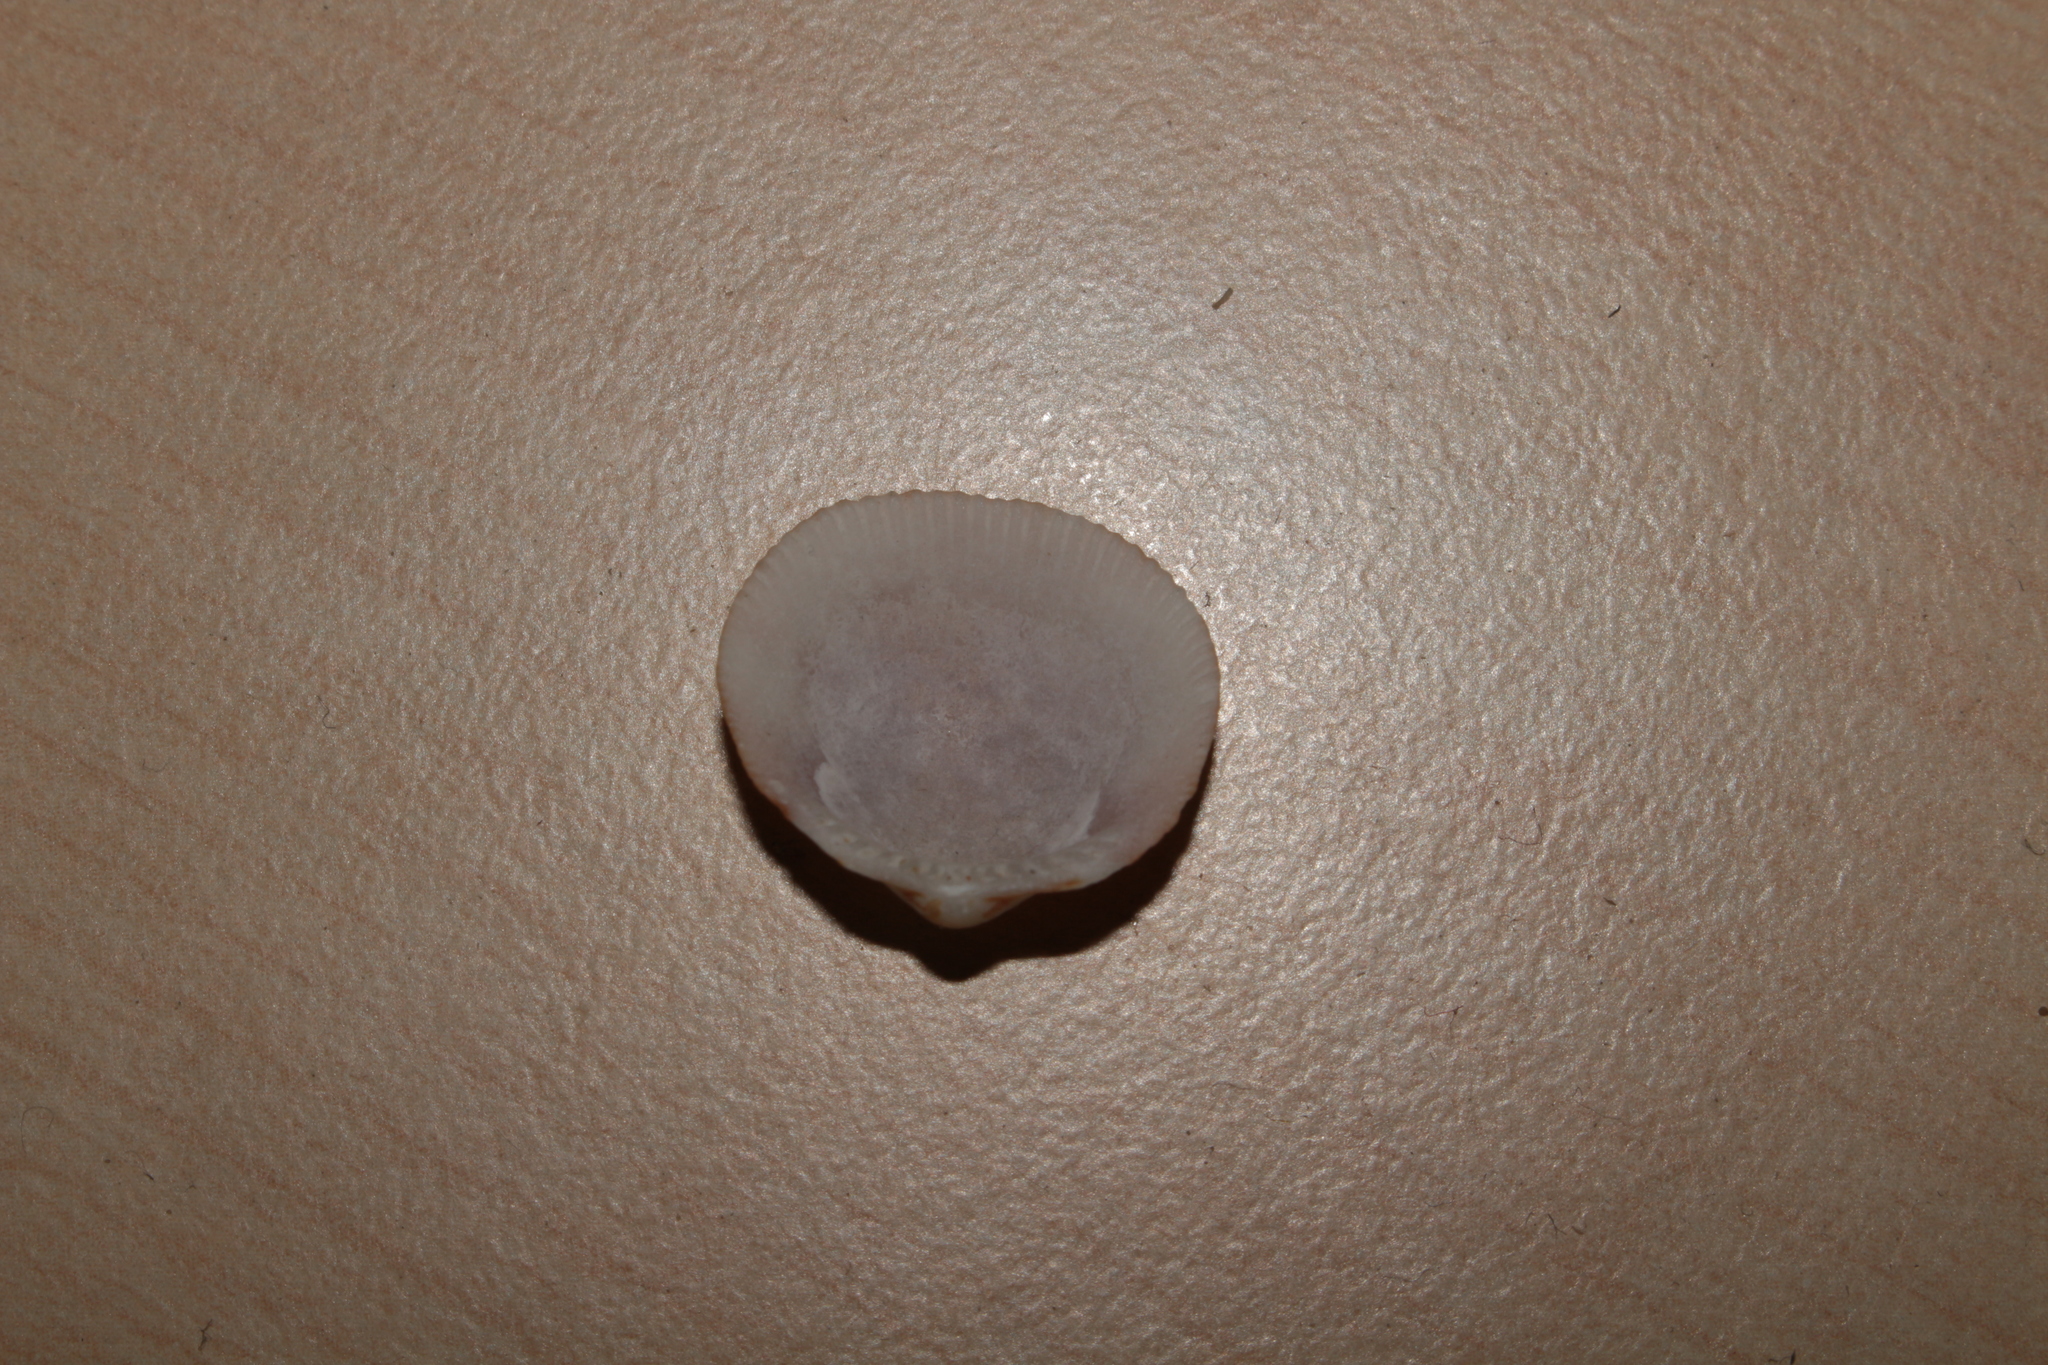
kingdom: Animalia
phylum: Mollusca
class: Bivalvia
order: Arcida
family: Glycymerididae
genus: Glycymeris
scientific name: Glycymeris glycymeris
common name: Dog-cockle
